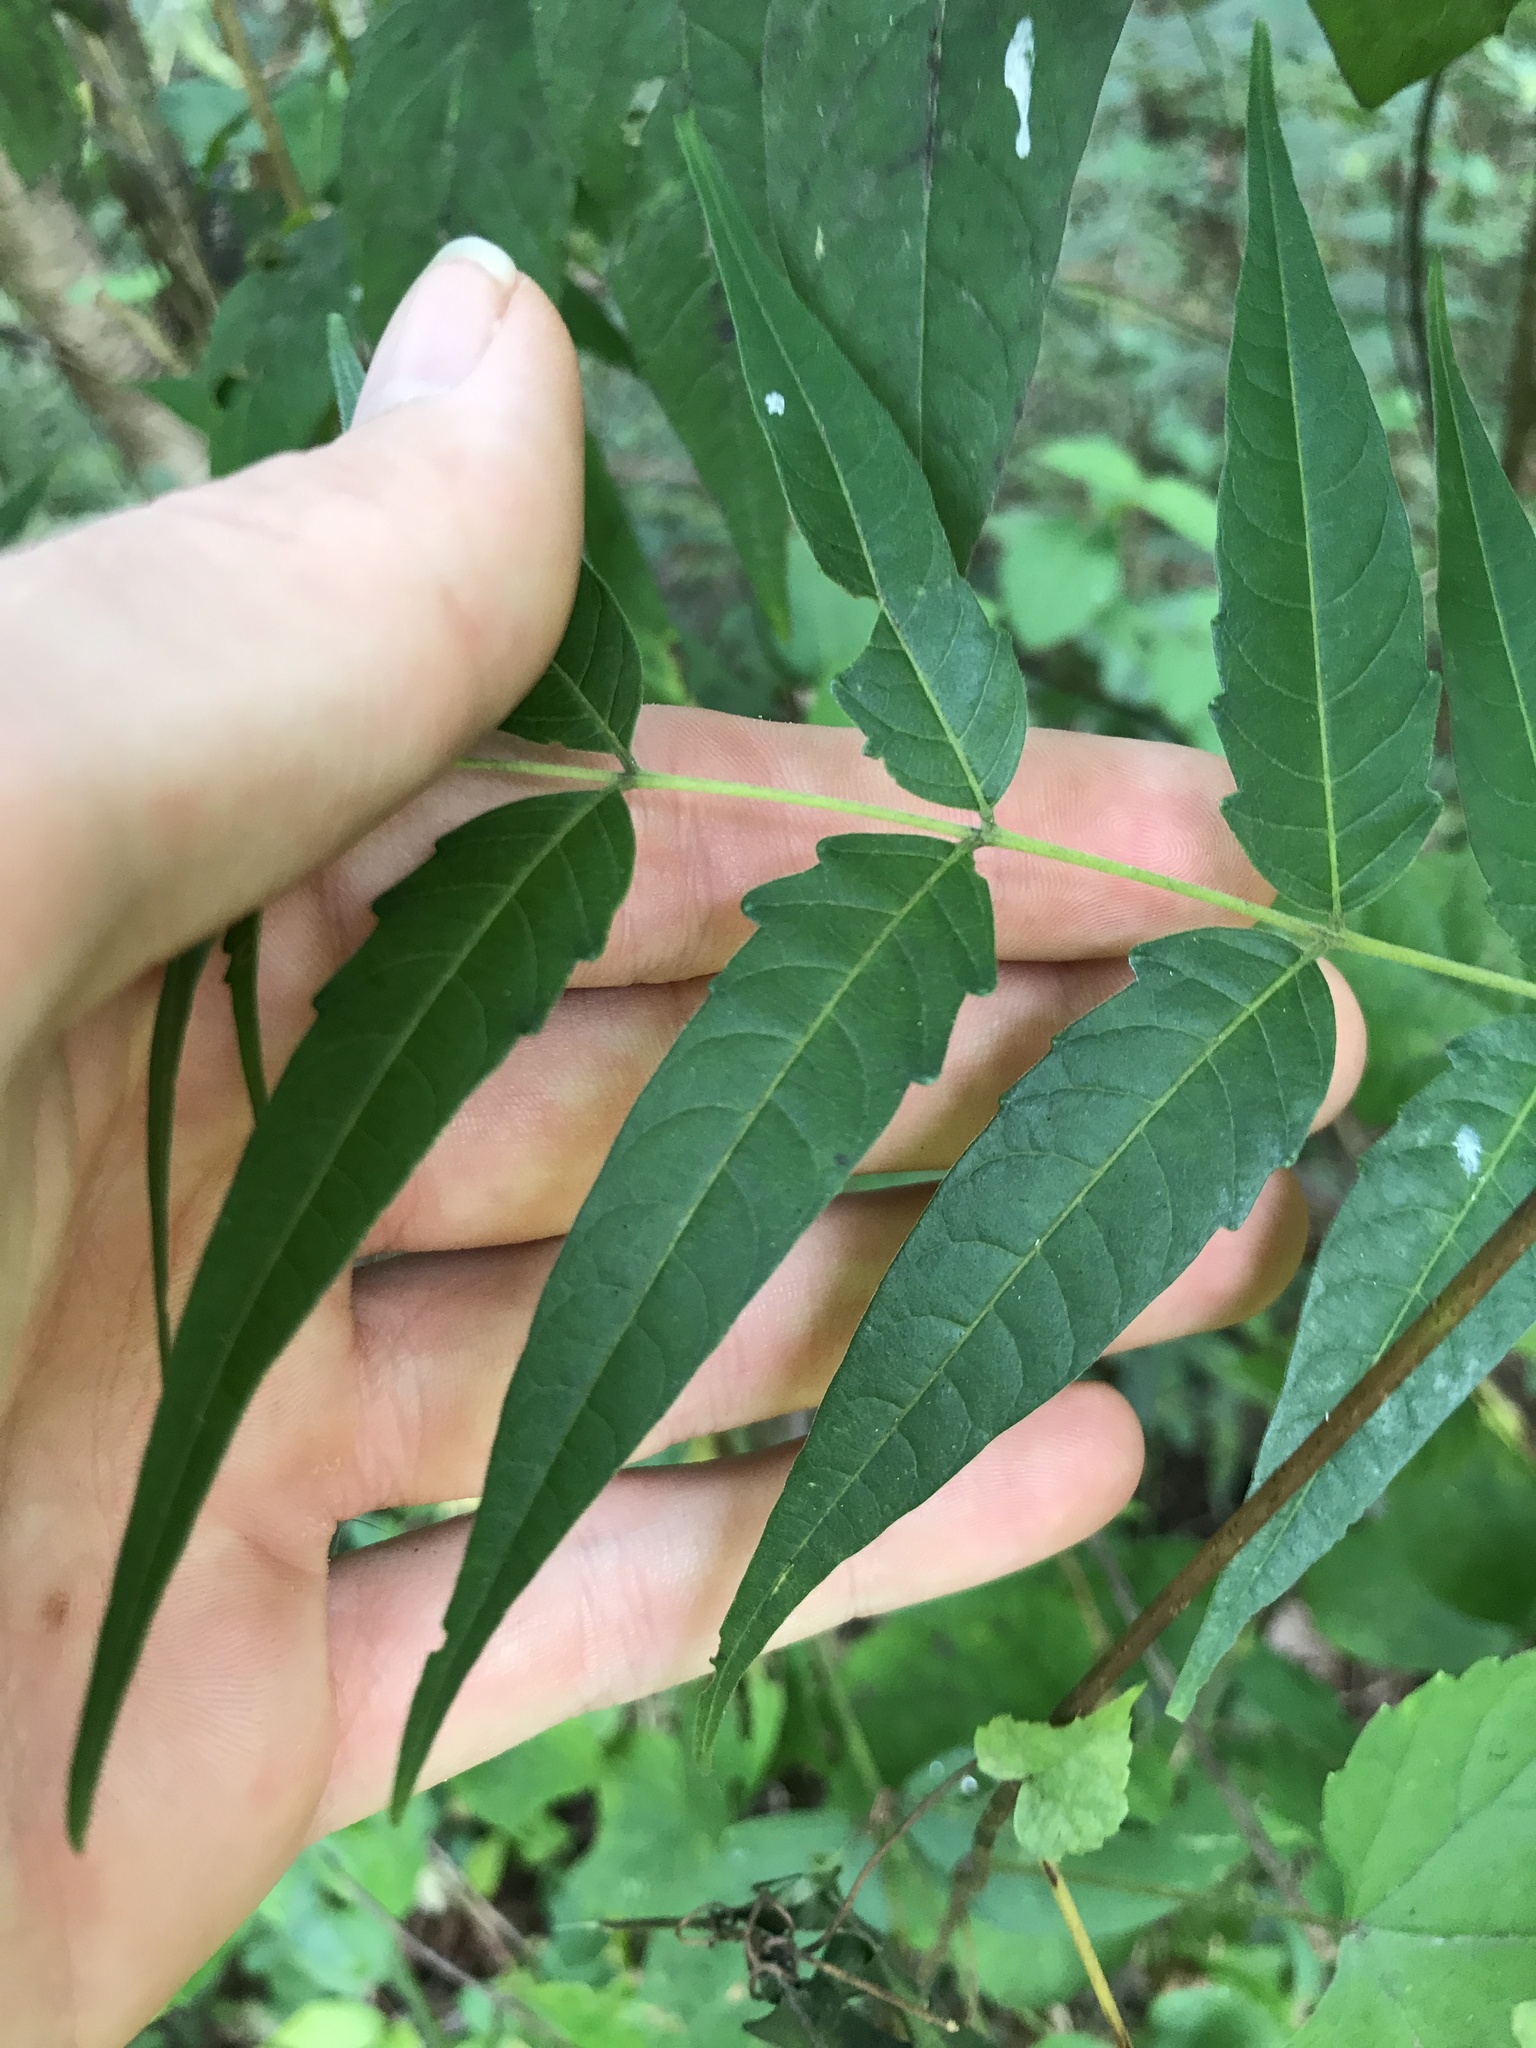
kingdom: Plantae
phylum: Tracheophyta
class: Magnoliopsida
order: Sapindales
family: Simaroubaceae
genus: Ailanthus
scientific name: Ailanthus altissima
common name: Tree-of-heaven
